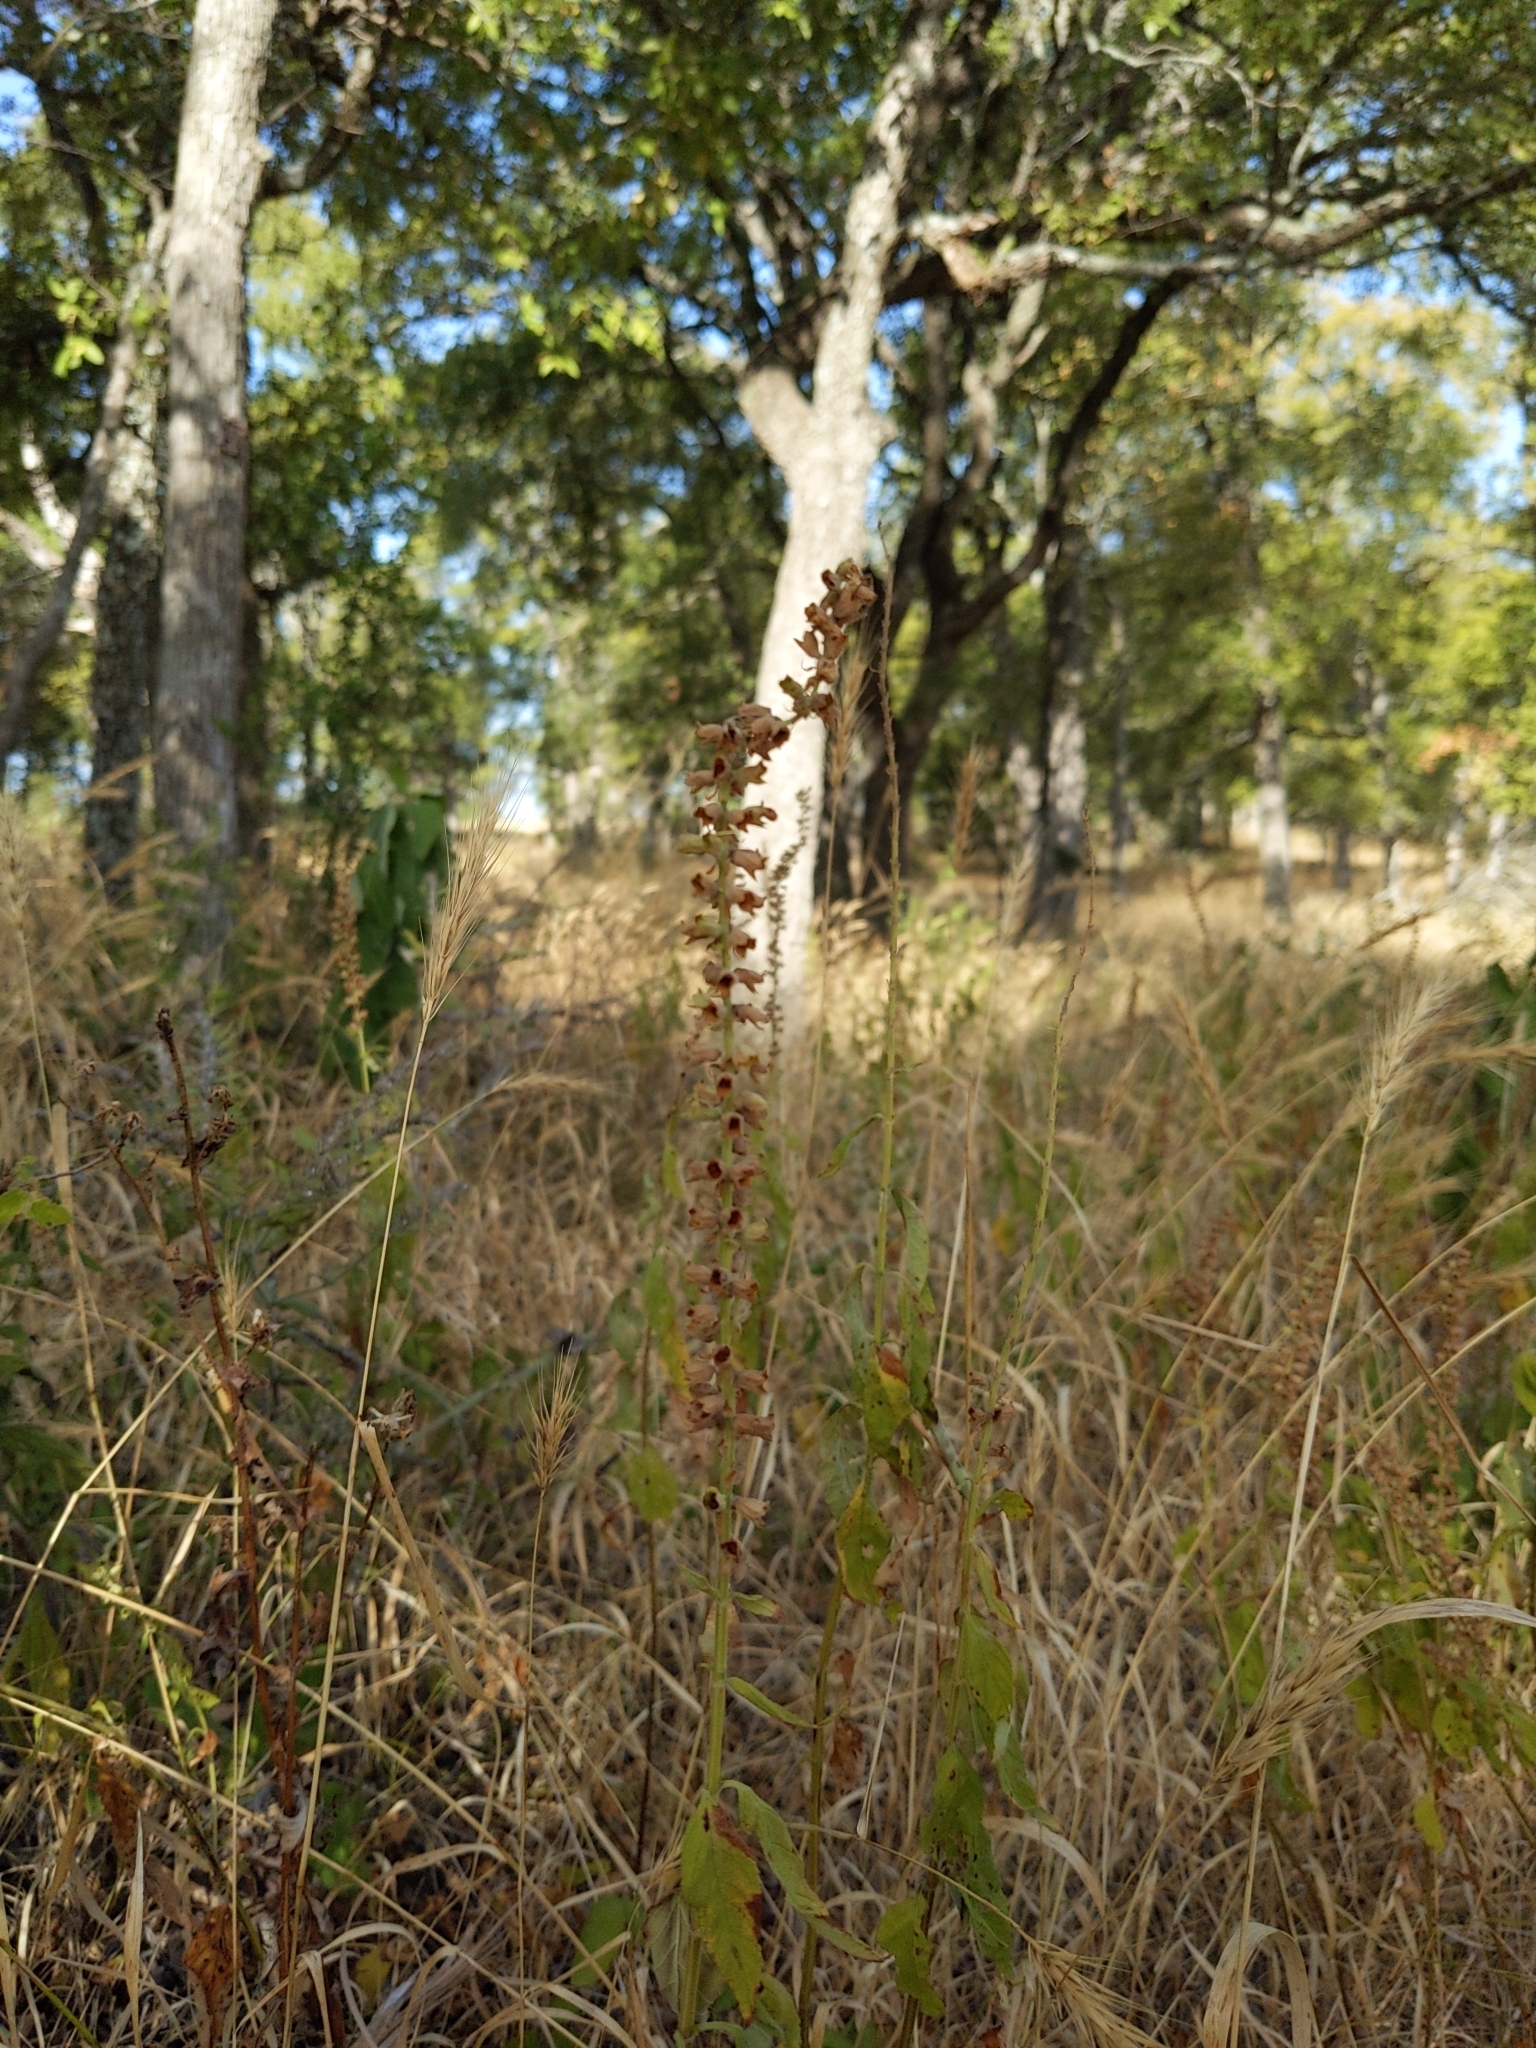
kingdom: Plantae
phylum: Tracheophyta
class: Magnoliopsida
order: Lamiales
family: Lamiaceae
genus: Teucrium
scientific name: Teucrium canadense
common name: American germander
